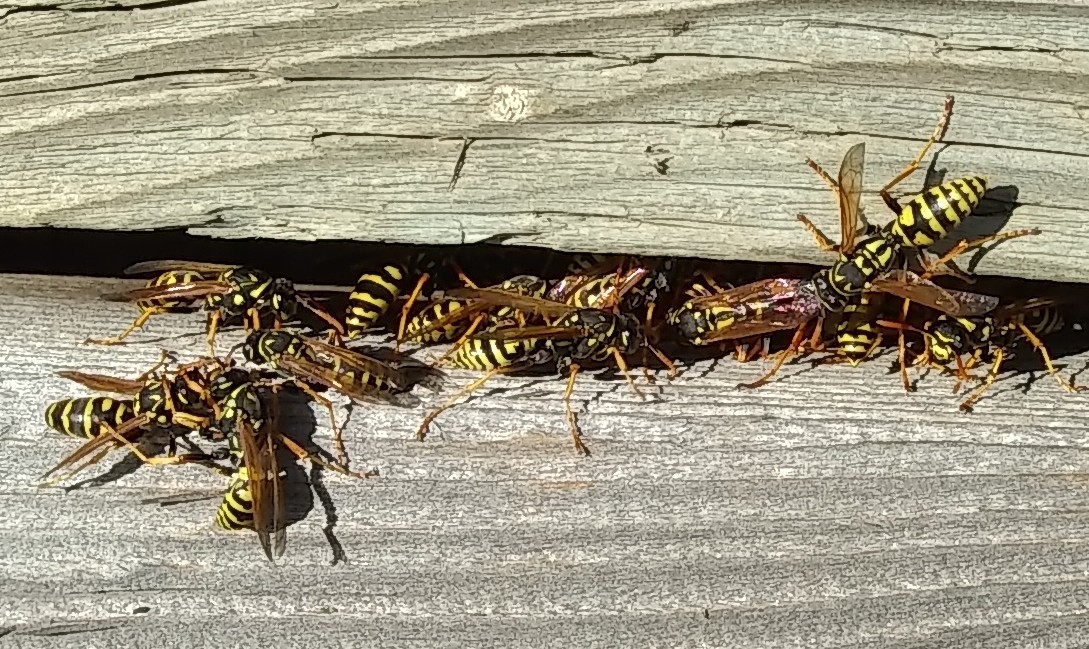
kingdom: Animalia
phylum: Arthropoda
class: Insecta
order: Hymenoptera
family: Eumenidae
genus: Polistes
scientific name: Polistes dominula
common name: Paper wasp
